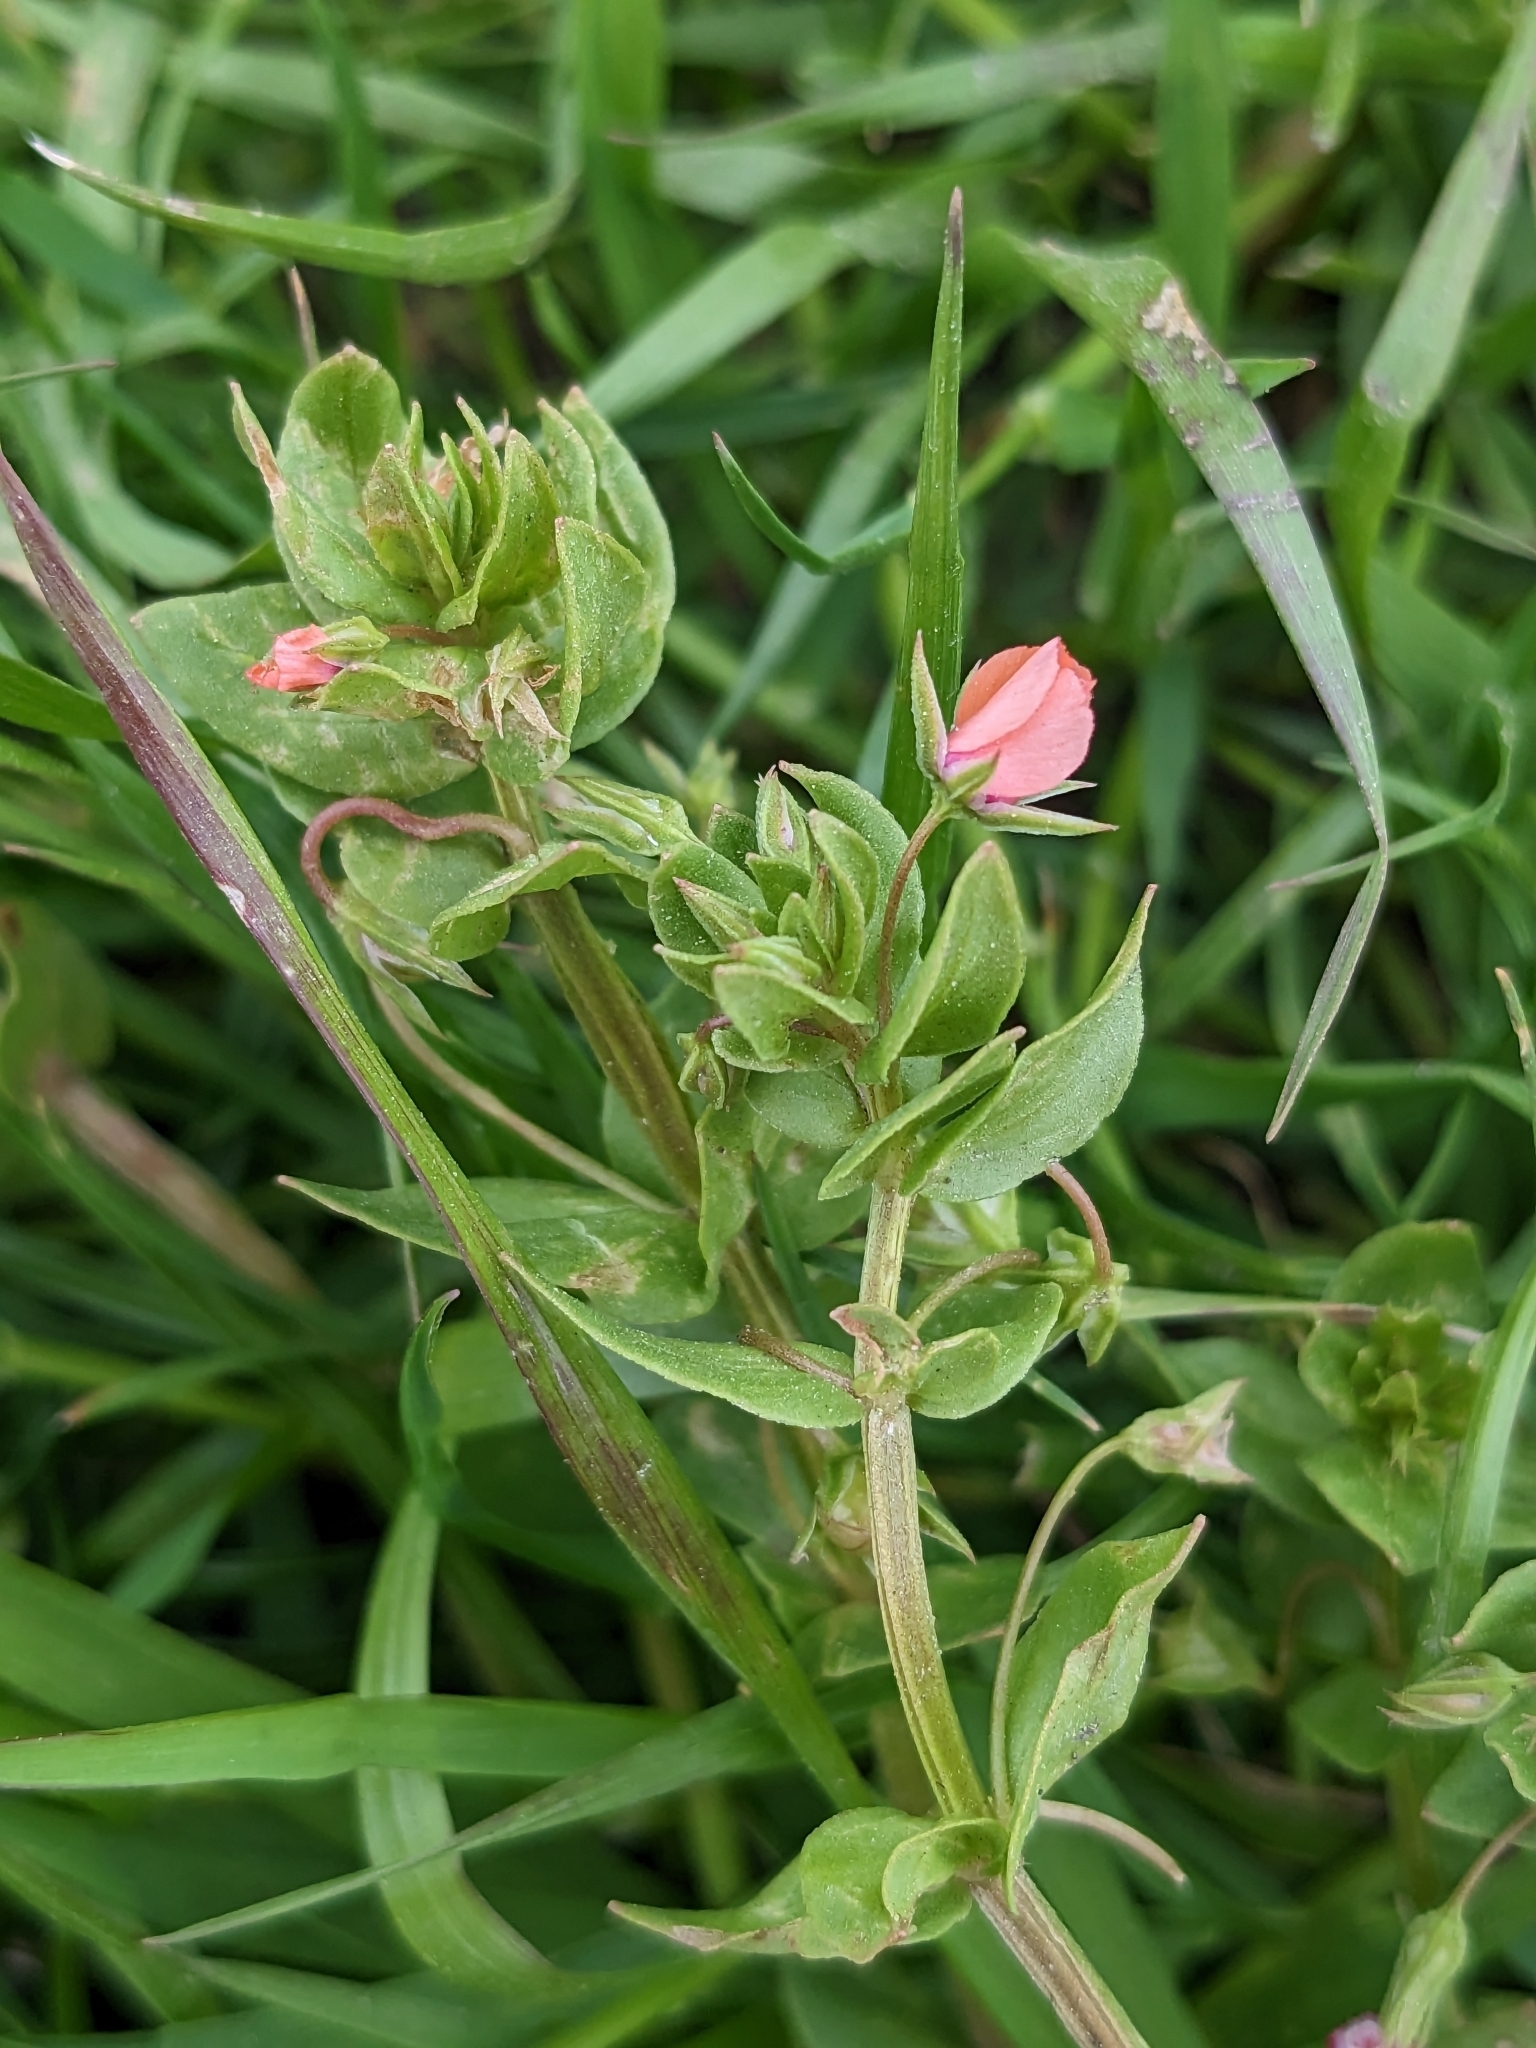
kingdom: Plantae
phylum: Tracheophyta
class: Magnoliopsida
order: Ericales
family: Primulaceae
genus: Lysimachia
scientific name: Lysimachia arvensis
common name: Scarlet pimpernel
